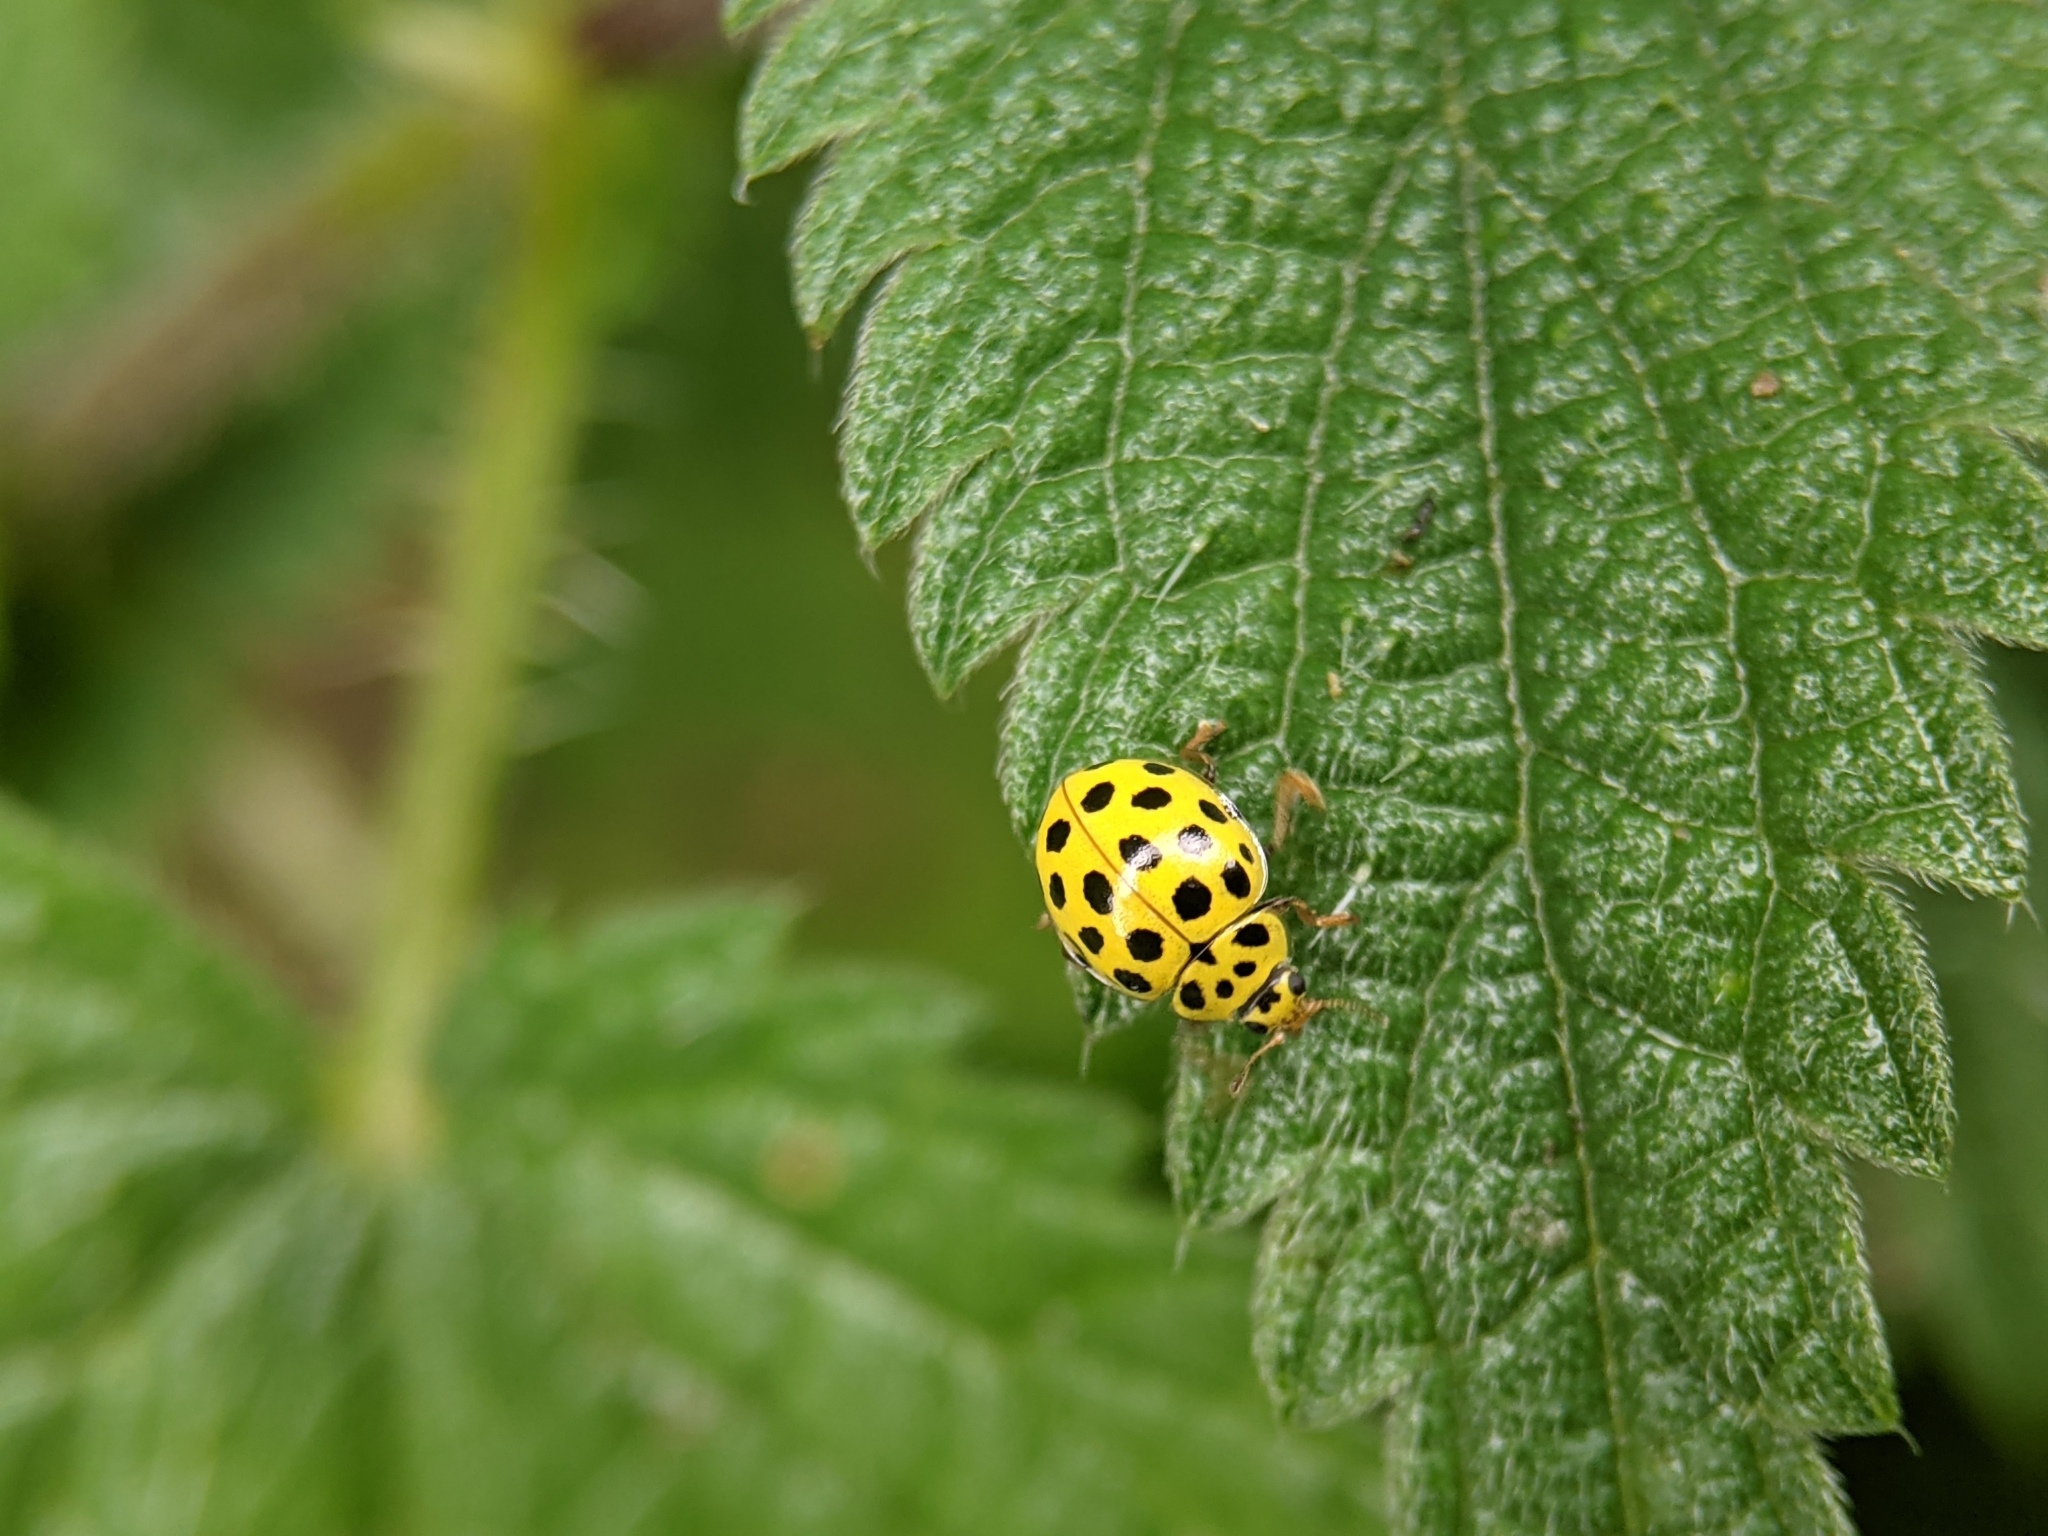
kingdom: Animalia
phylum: Arthropoda
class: Insecta
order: Coleoptera
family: Coccinellidae
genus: Psyllobora
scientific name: Psyllobora vigintiduopunctata
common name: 22-spot ladybird
